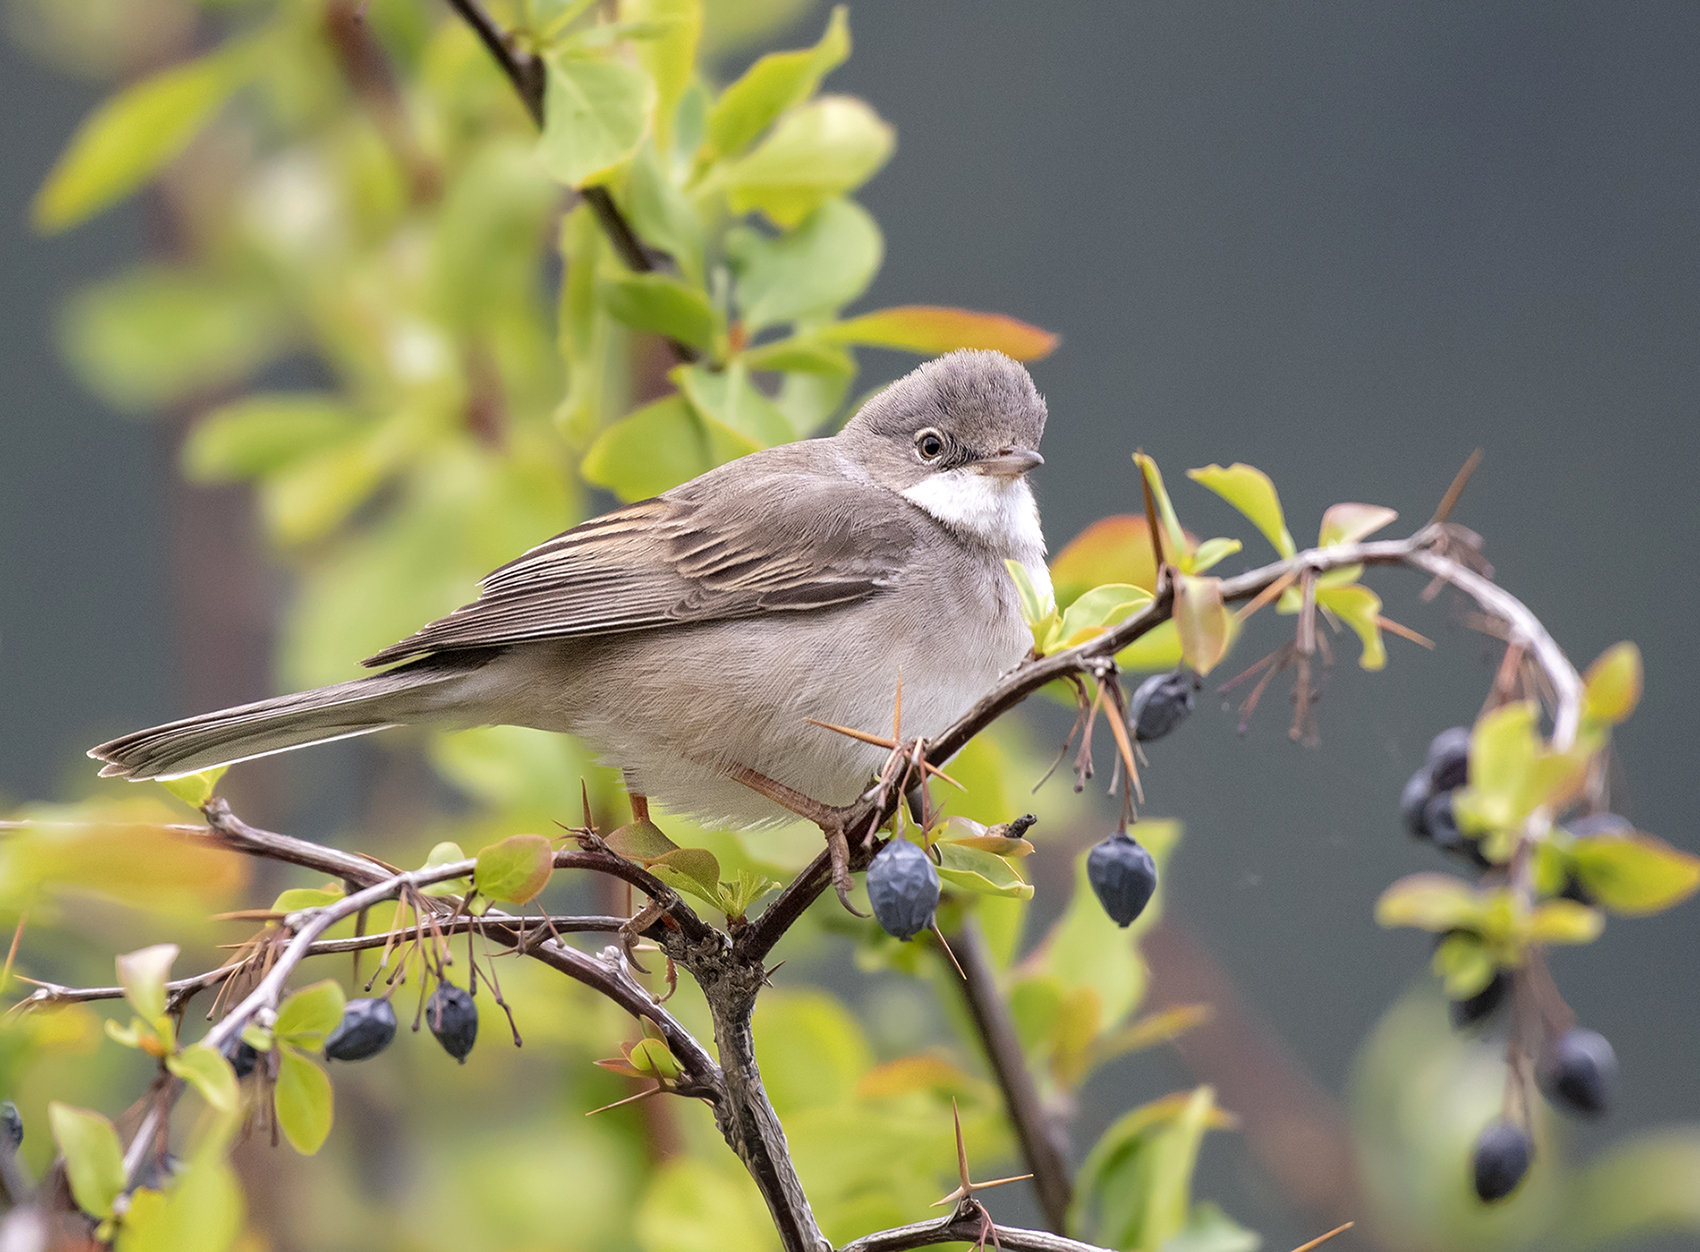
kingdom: Animalia
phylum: Chordata
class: Aves
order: Passeriformes
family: Sylviidae
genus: Sylvia
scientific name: Sylvia communis
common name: Common whitethroat
